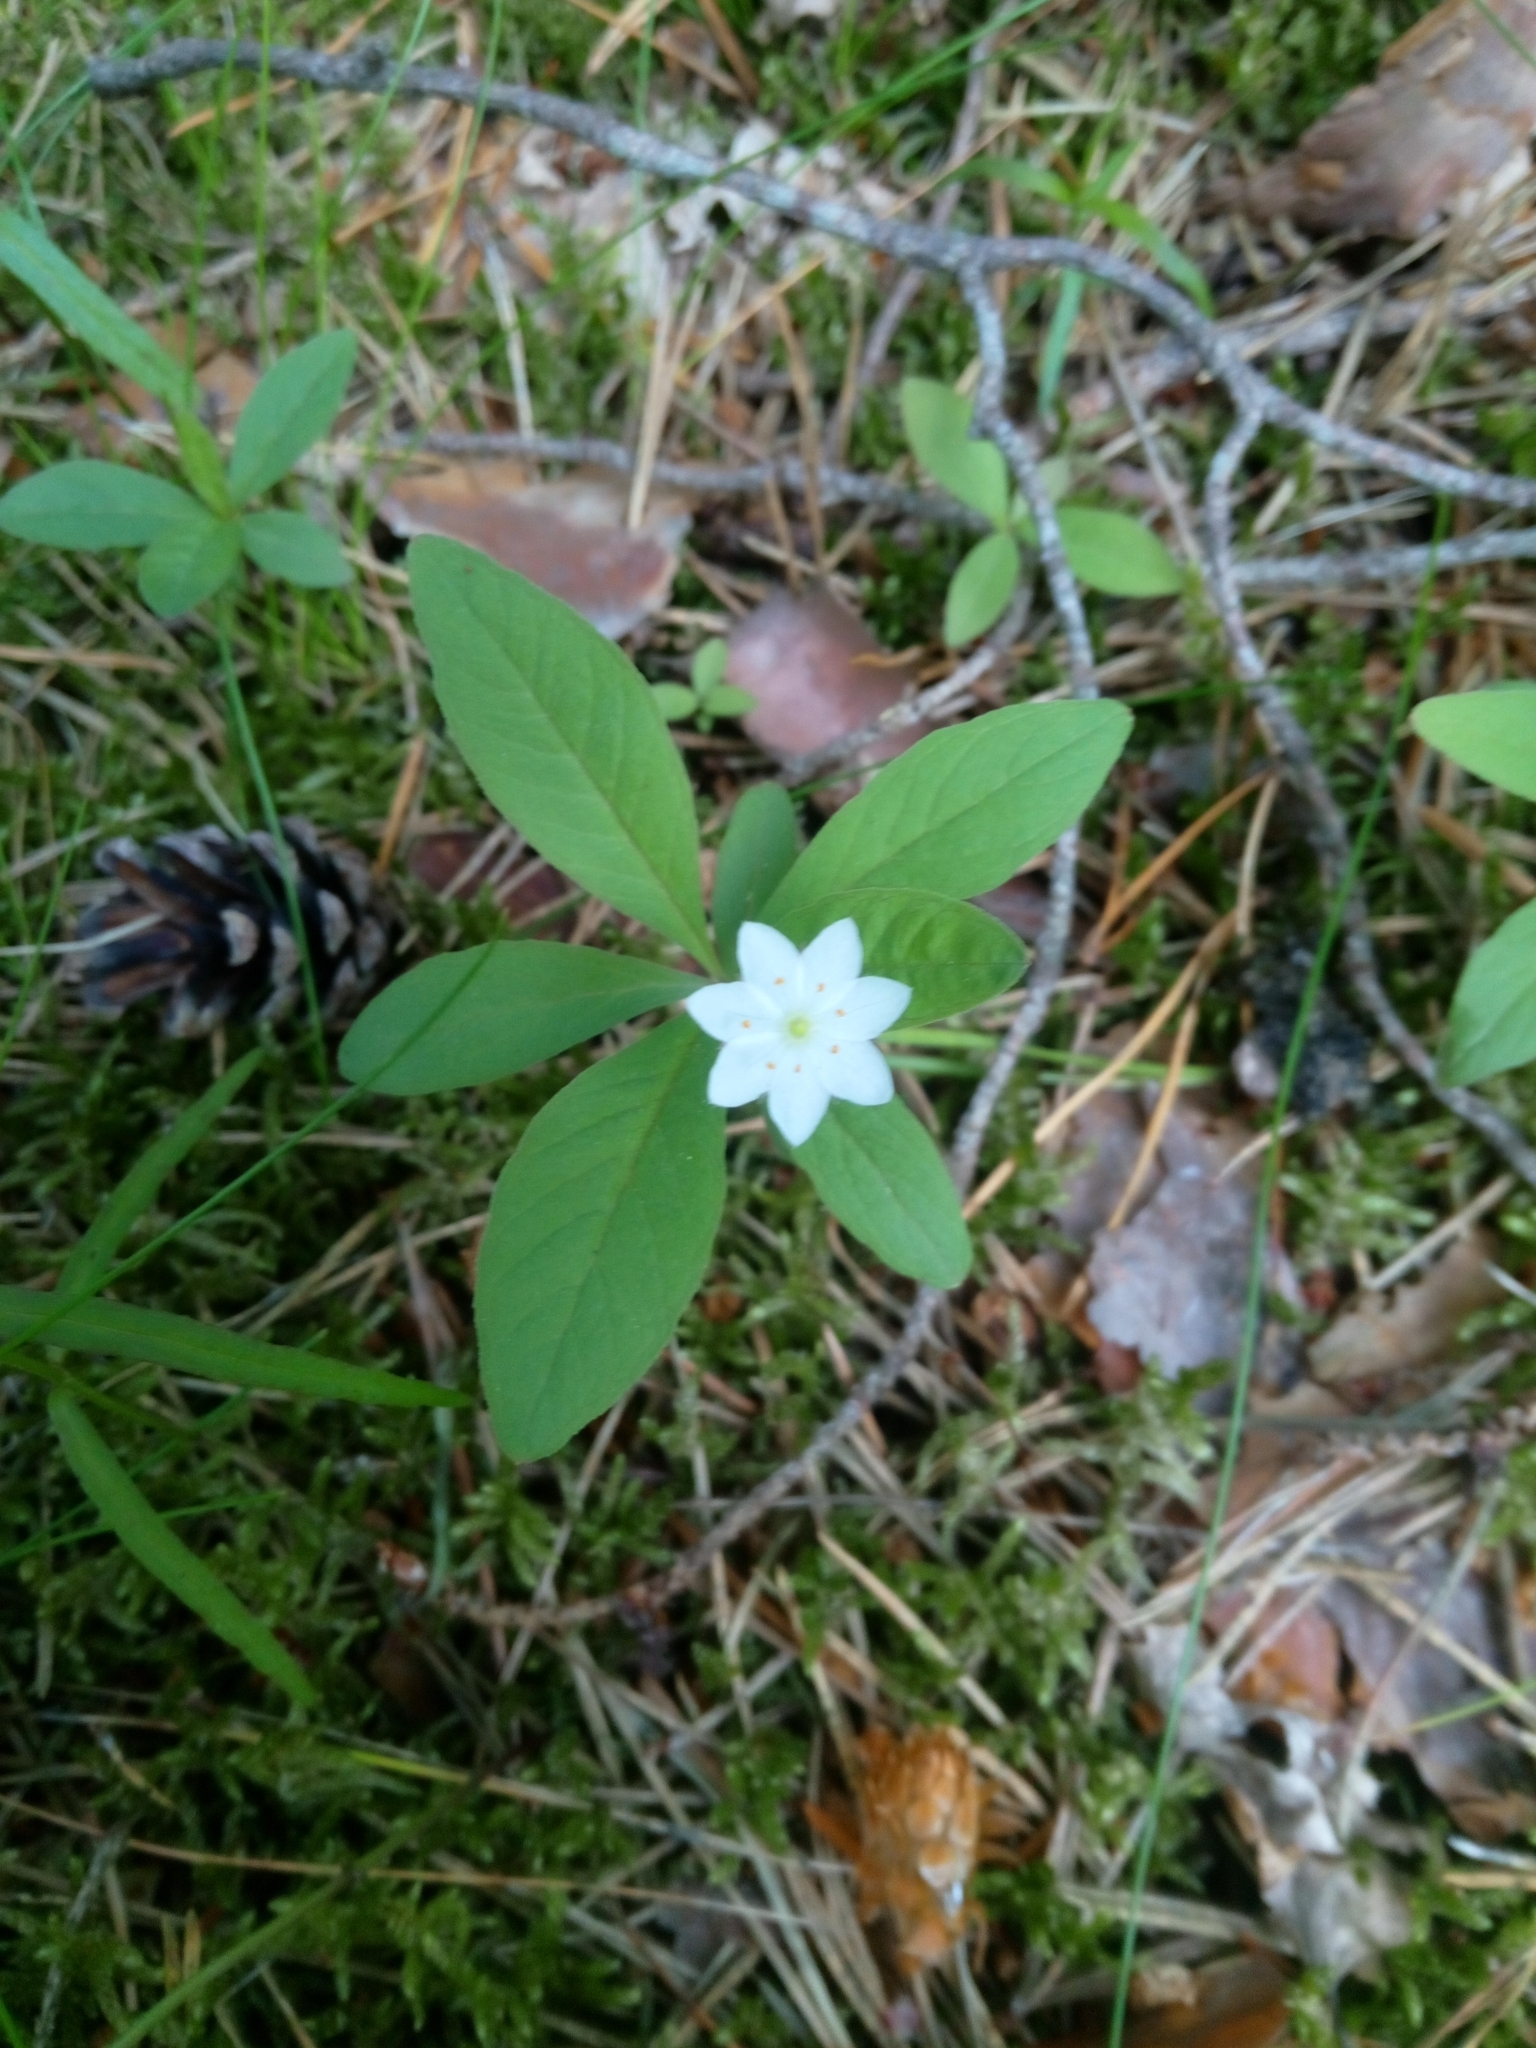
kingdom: Plantae
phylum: Tracheophyta
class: Magnoliopsida
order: Ericales
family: Primulaceae
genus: Lysimachia
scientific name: Lysimachia europaea
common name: Arctic starflower
